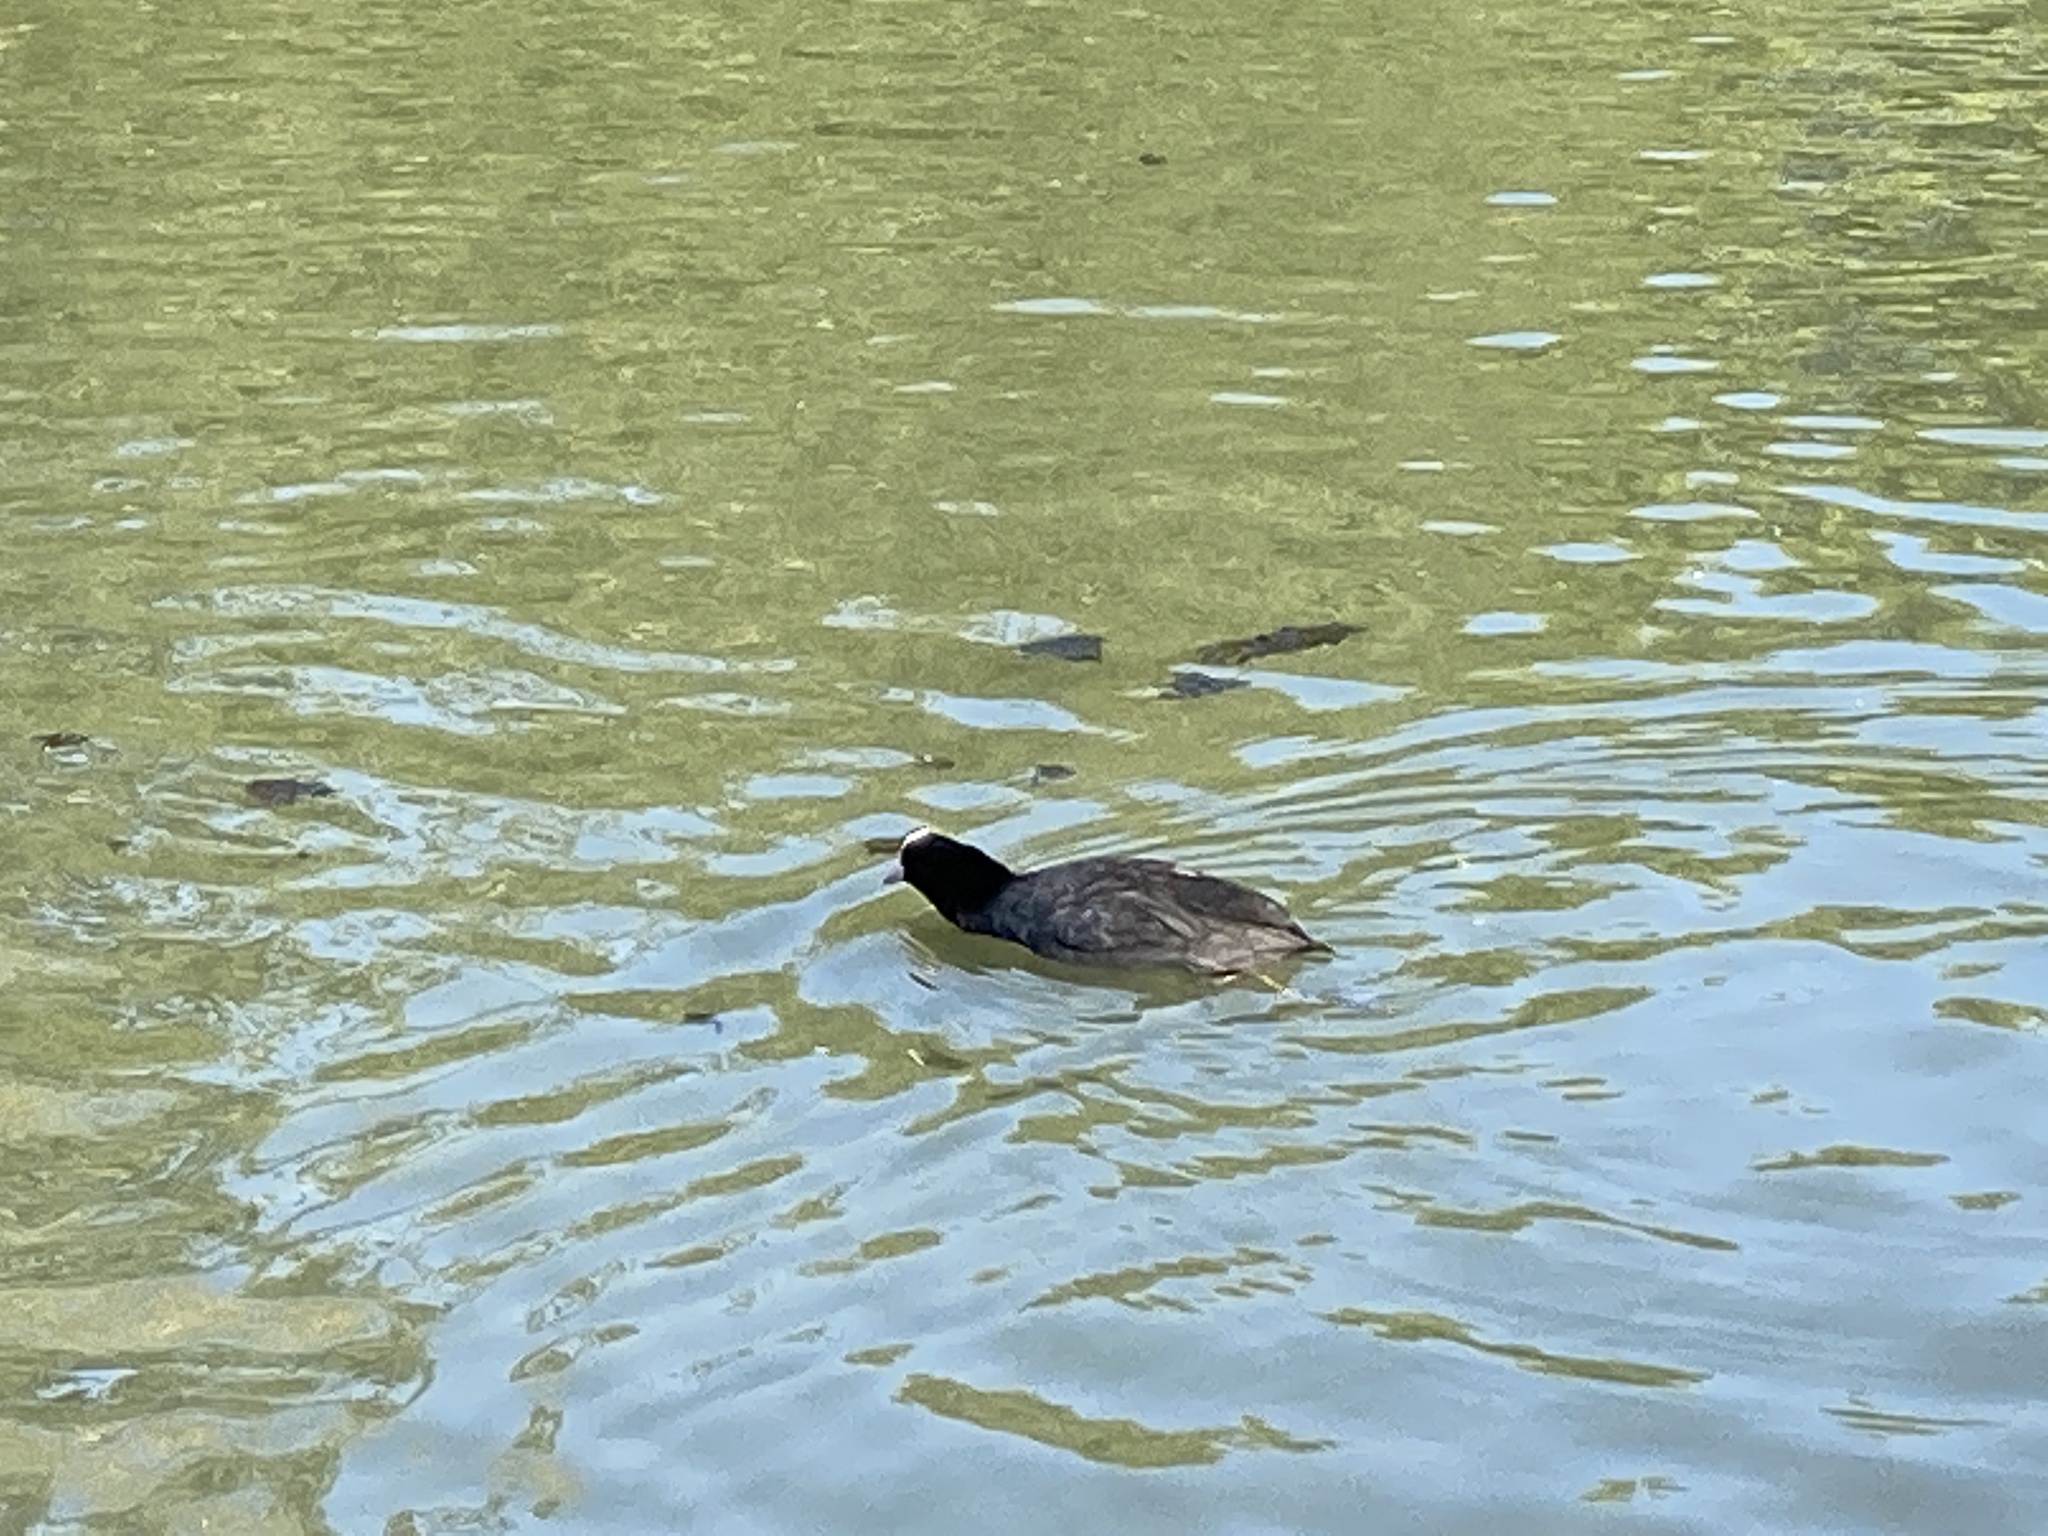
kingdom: Animalia
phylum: Chordata
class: Aves
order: Gruiformes
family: Rallidae
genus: Fulica
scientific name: Fulica atra
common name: Eurasian coot
